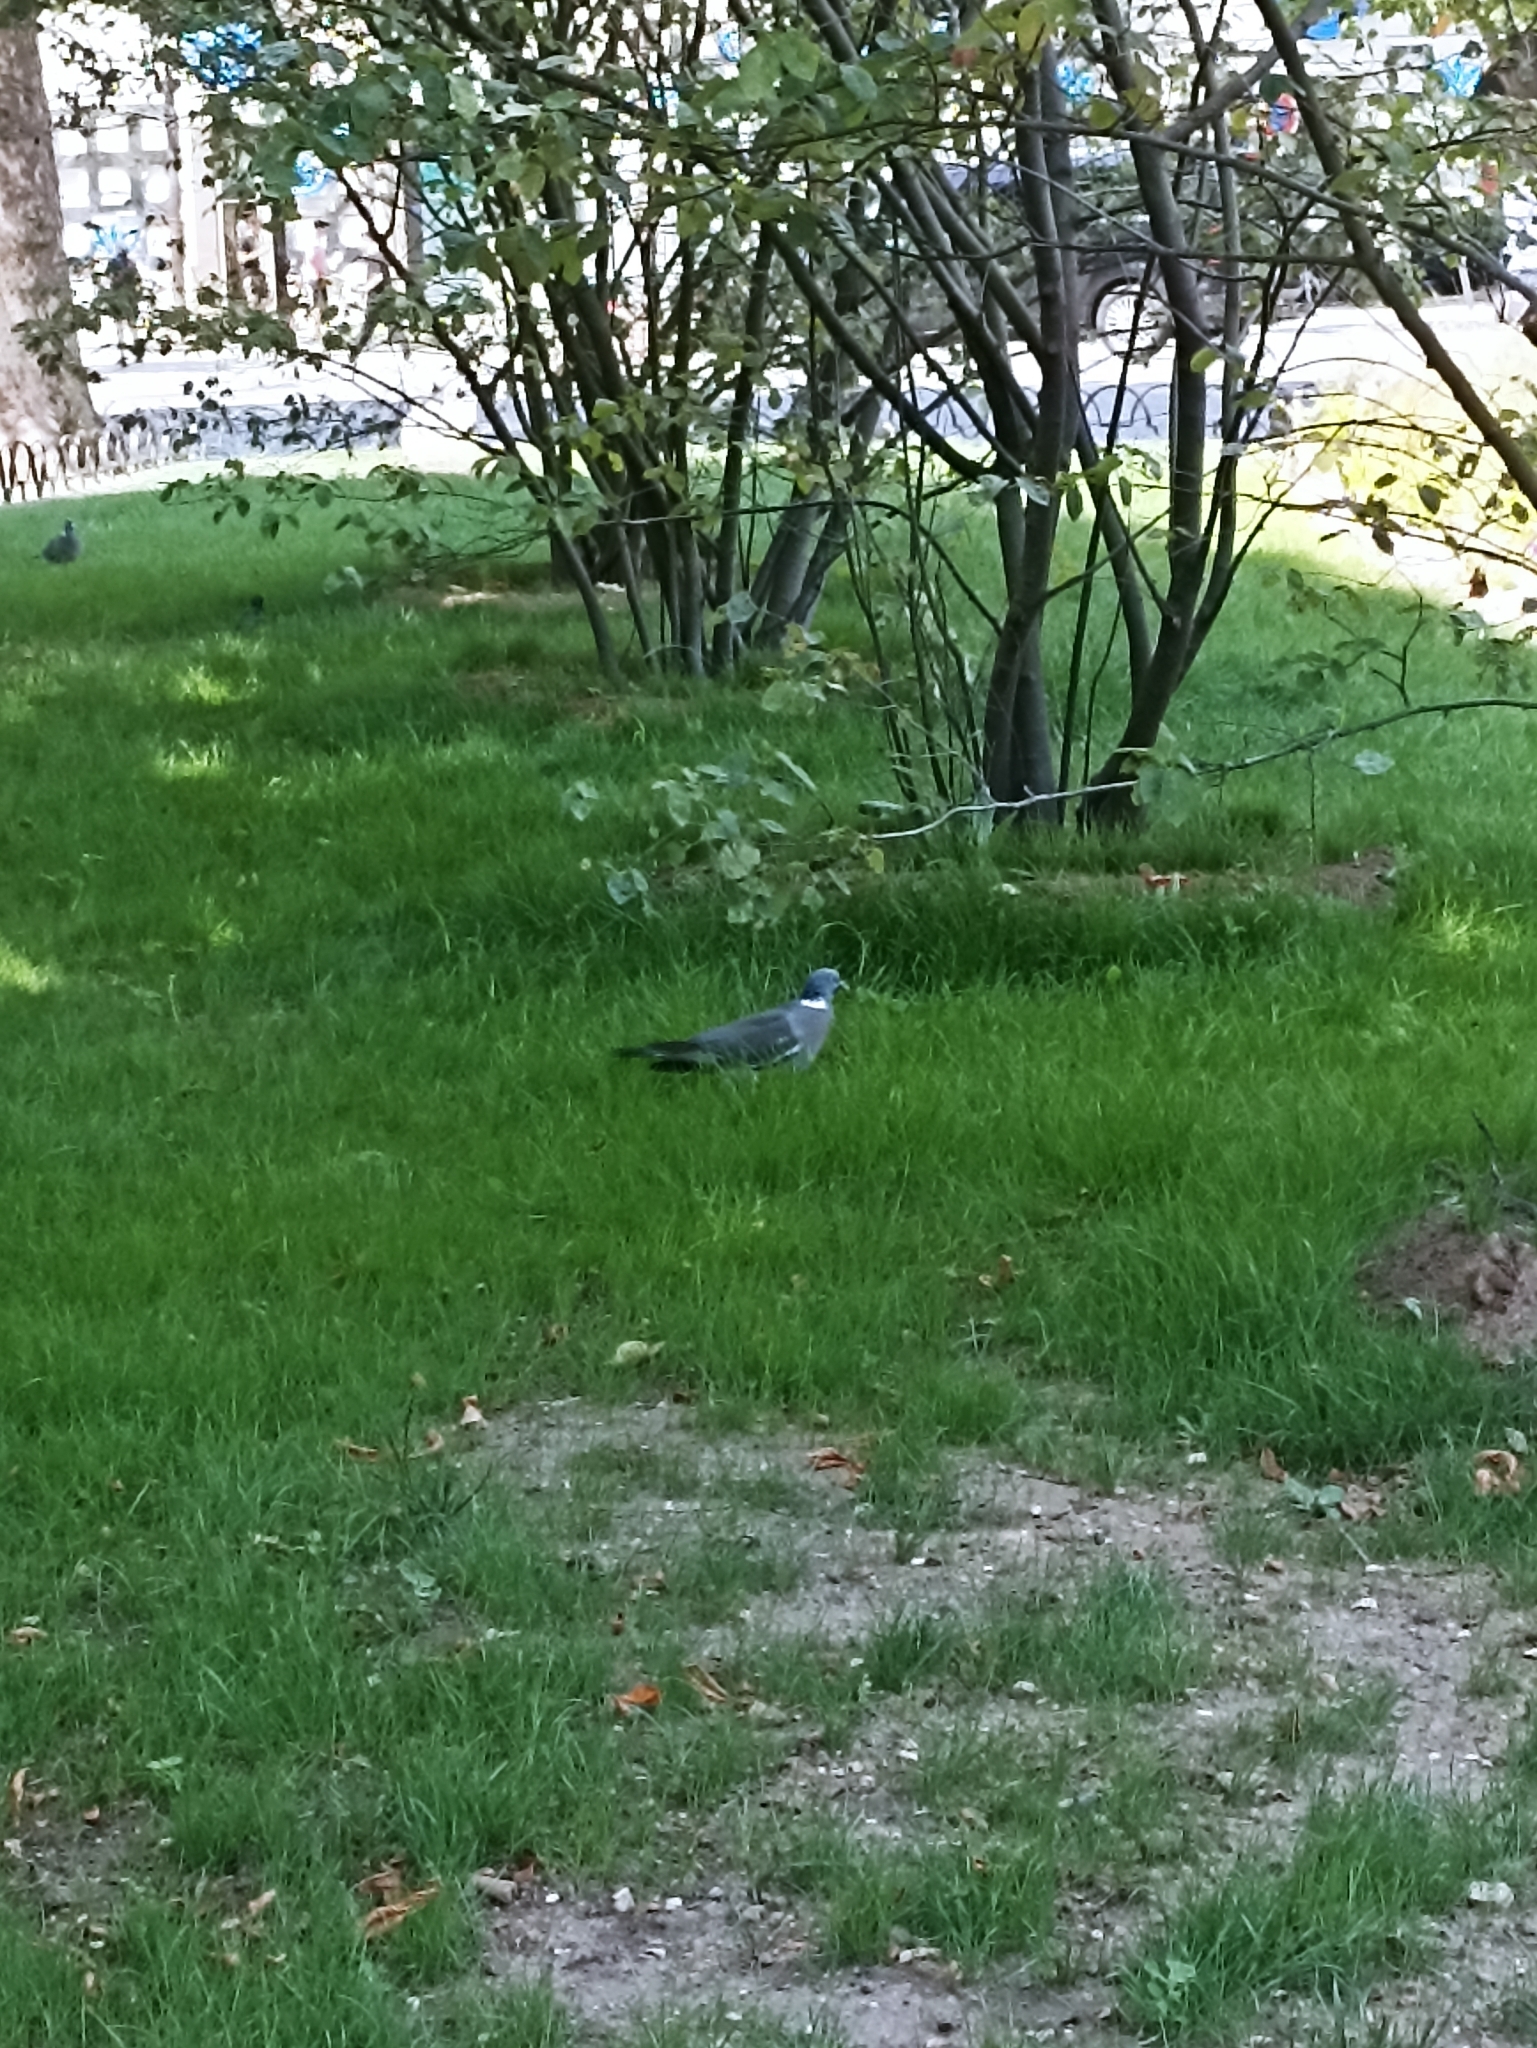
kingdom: Animalia
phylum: Chordata
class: Aves
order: Columbiformes
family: Columbidae
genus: Columba
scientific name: Columba palumbus
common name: Common wood pigeon
